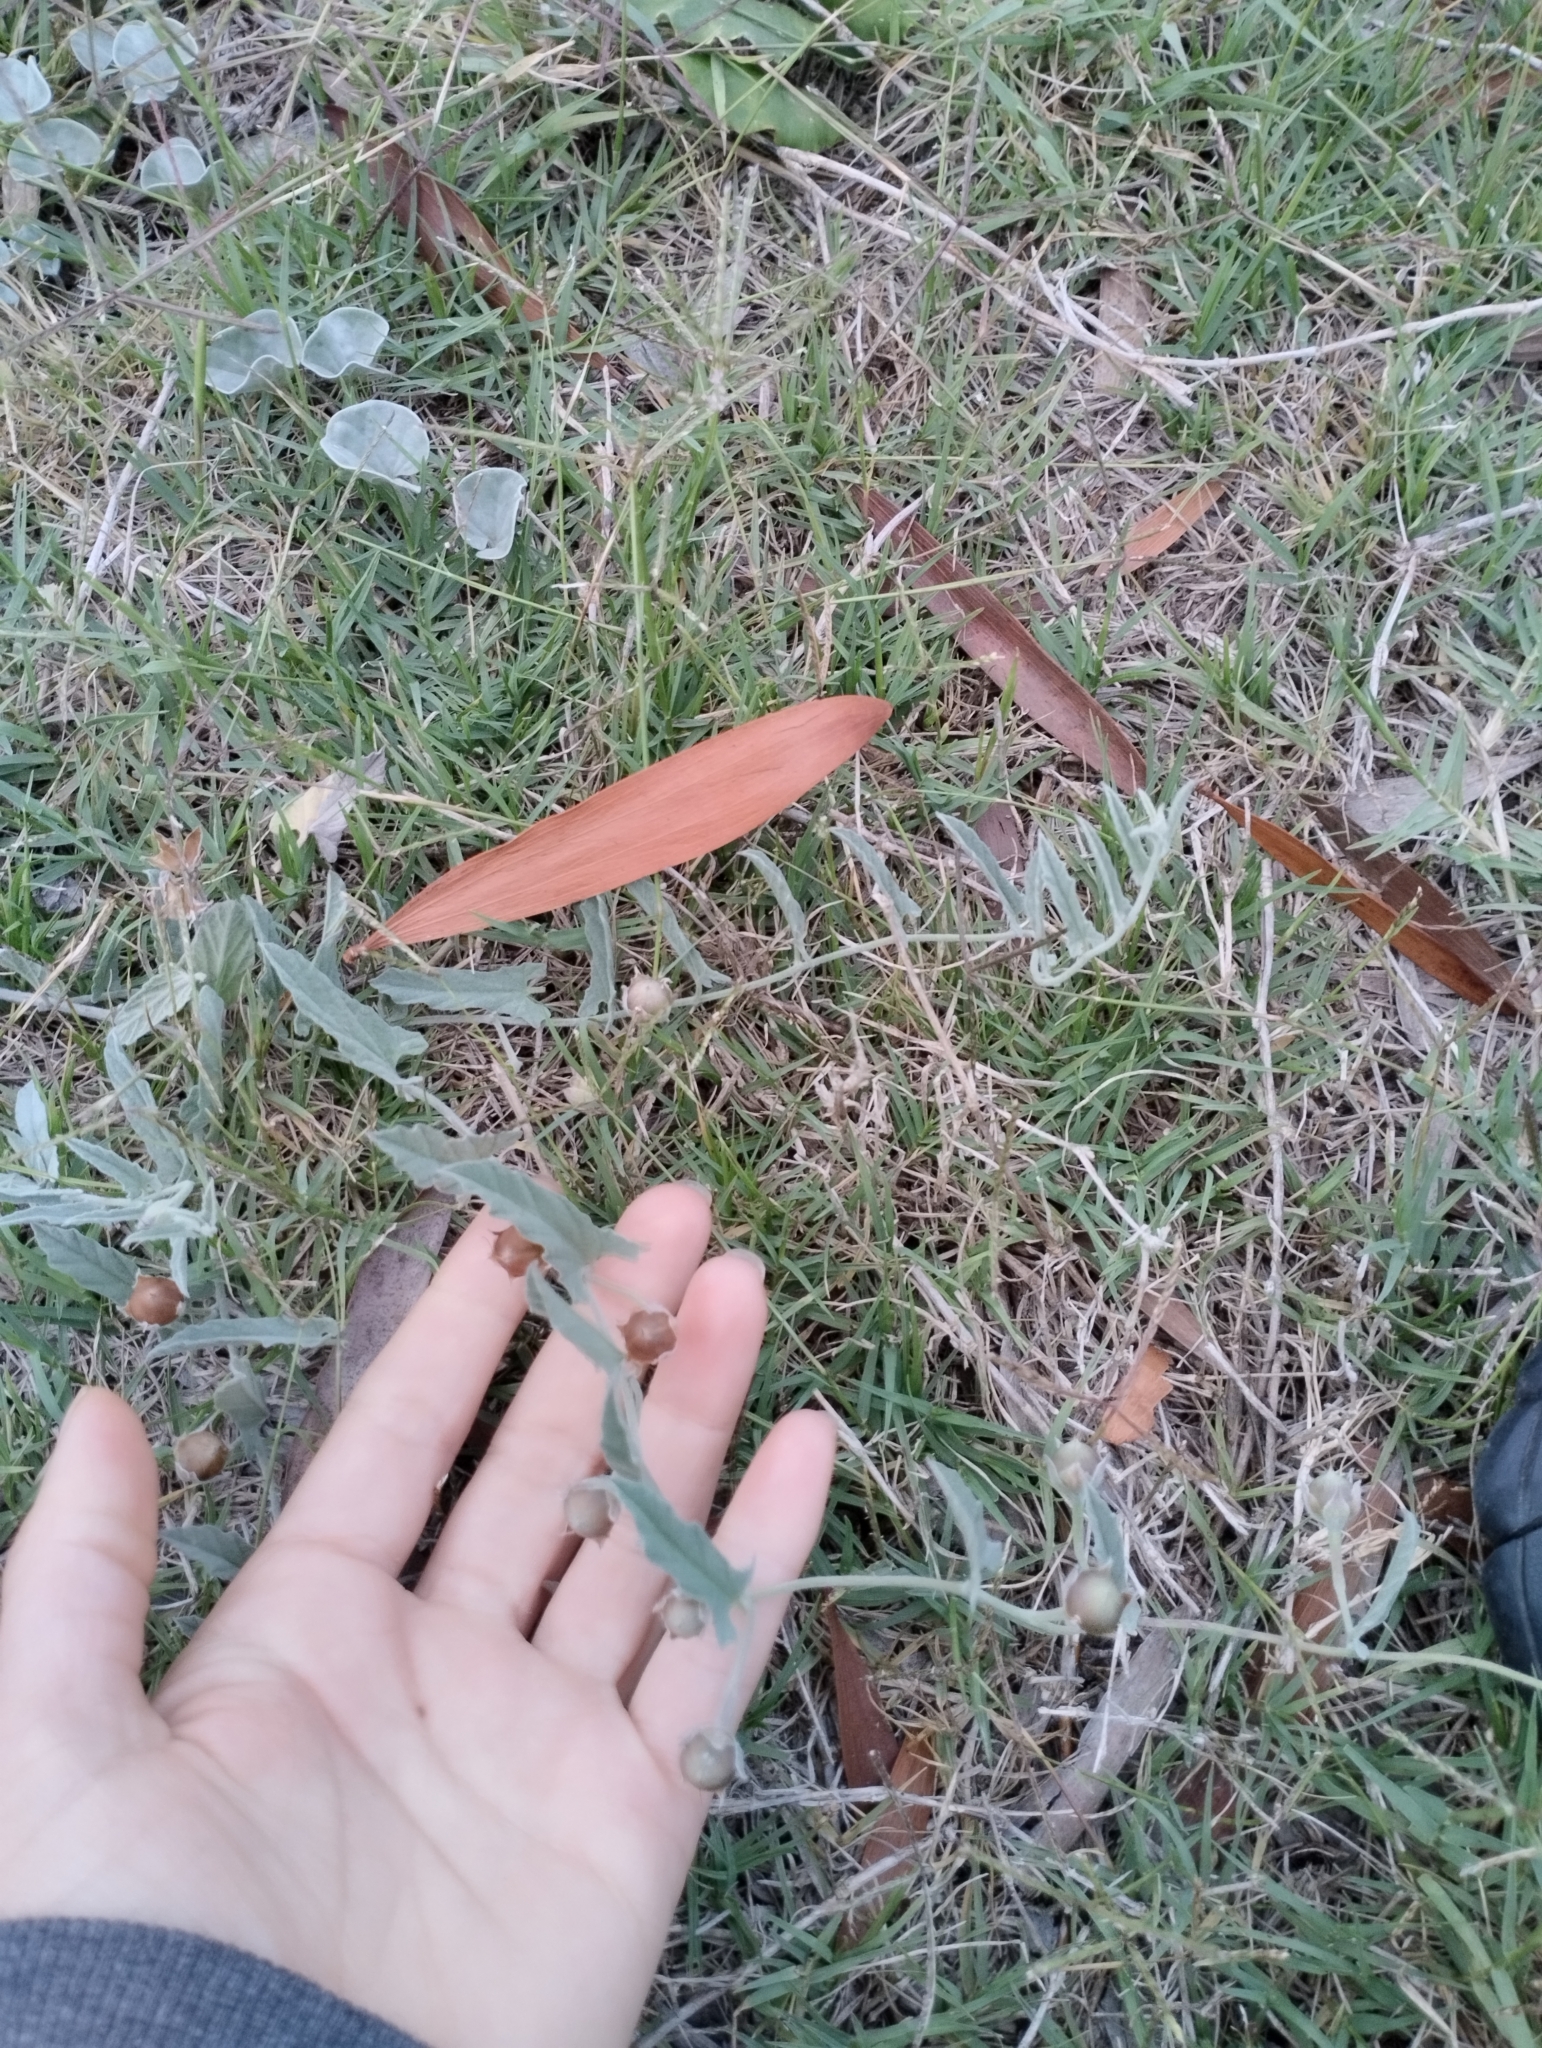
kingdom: Plantae
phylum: Tracheophyta
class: Magnoliopsida
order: Solanales
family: Convolvulaceae
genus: Convolvulus
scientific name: Convolvulus hermanniae
